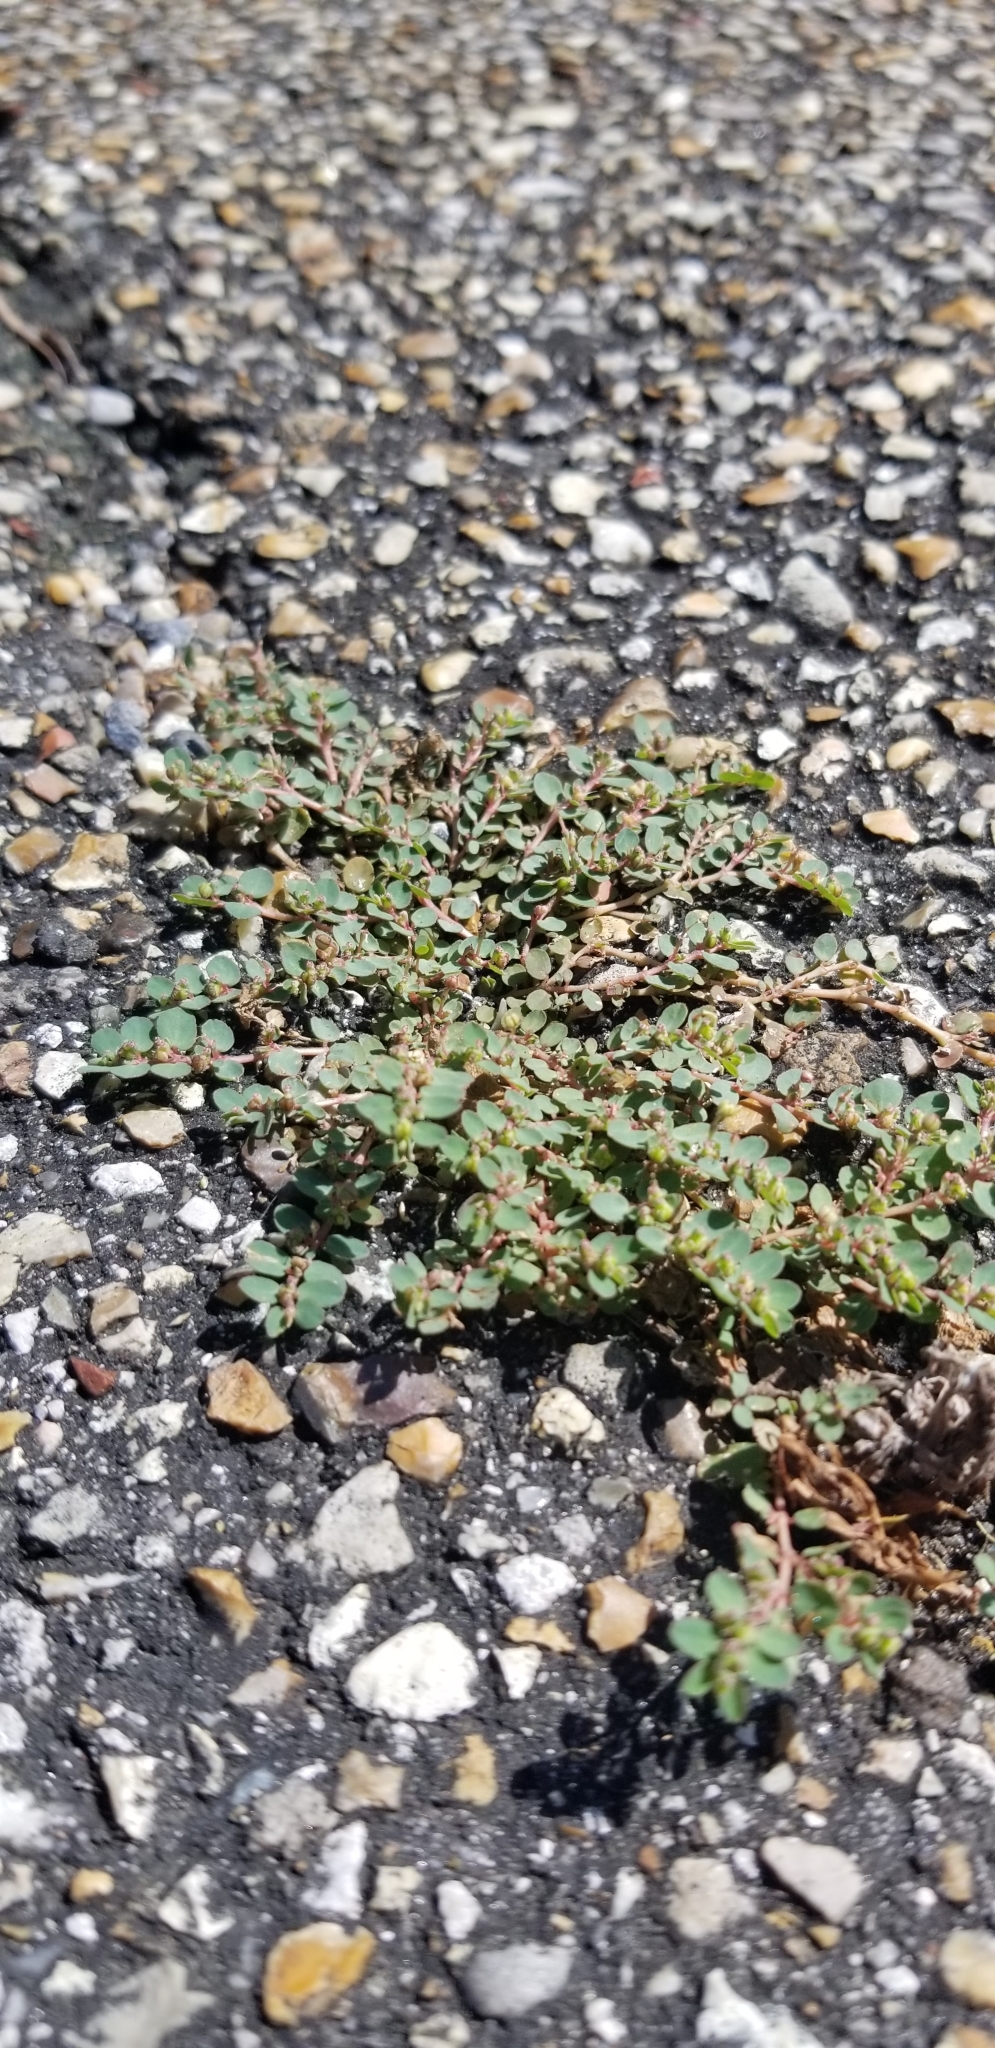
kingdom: Plantae
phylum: Tracheophyta
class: Magnoliopsida
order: Malpighiales
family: Euphorbiaceae
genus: Euphorbia
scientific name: Euphorbia prostrata
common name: Prostrate sandmat
